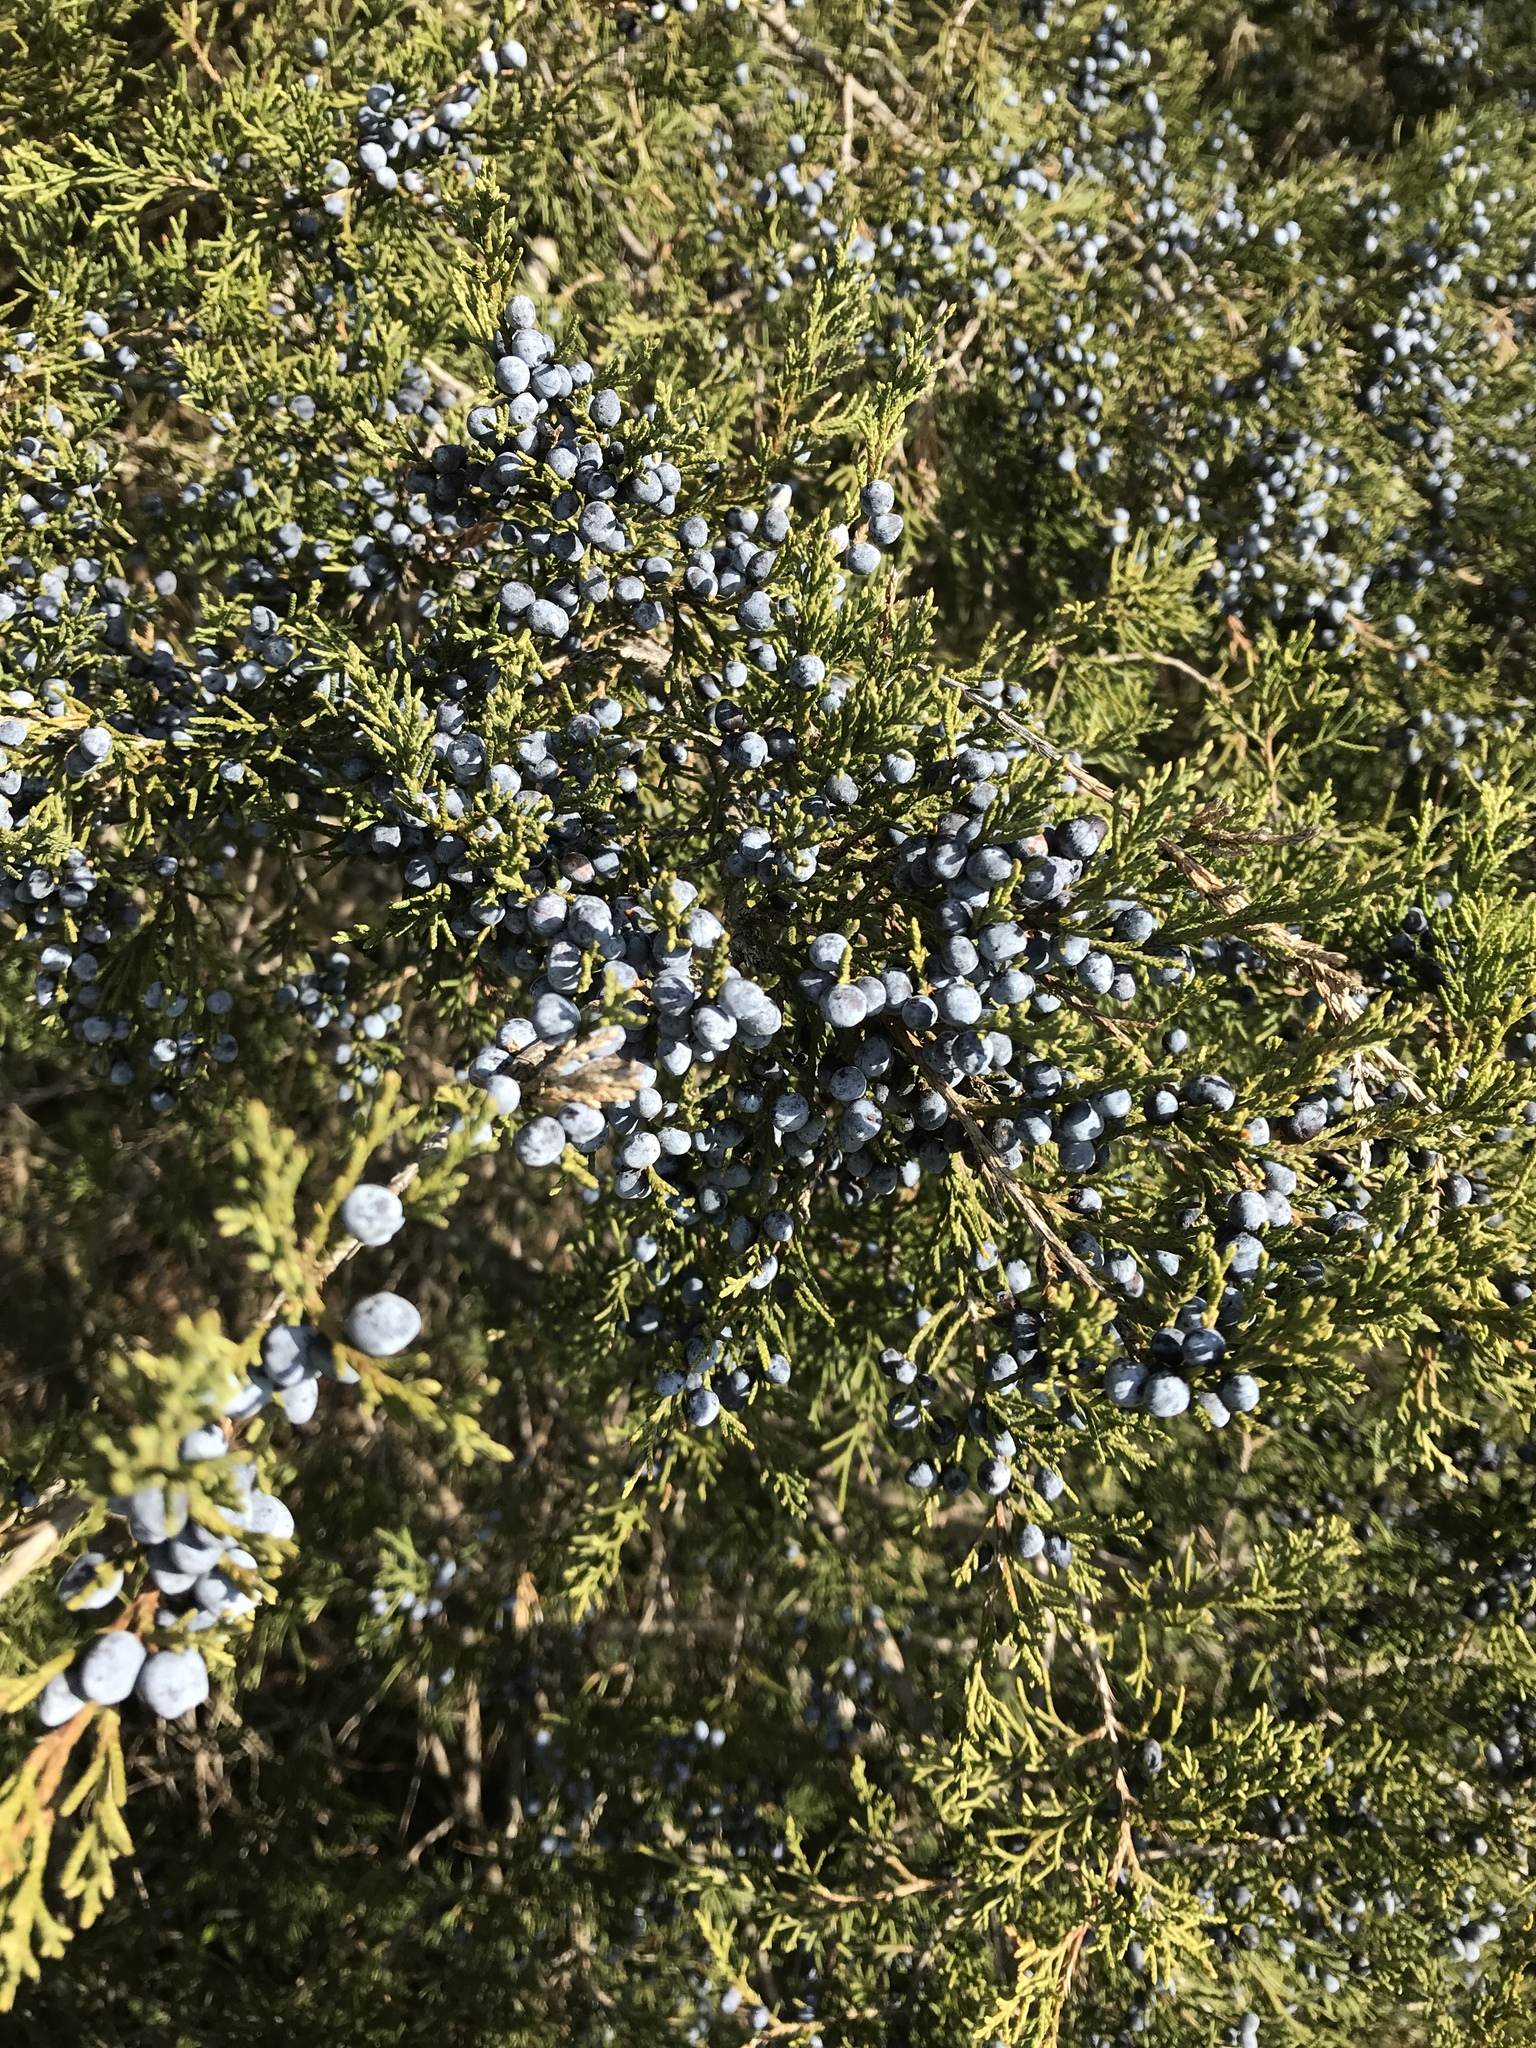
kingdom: Plantae
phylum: Tracheophyta
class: Pinopsida
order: Pinales
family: Cupressaceae
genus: Juniperus
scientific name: Juniperus virginiana
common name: Red juniper
